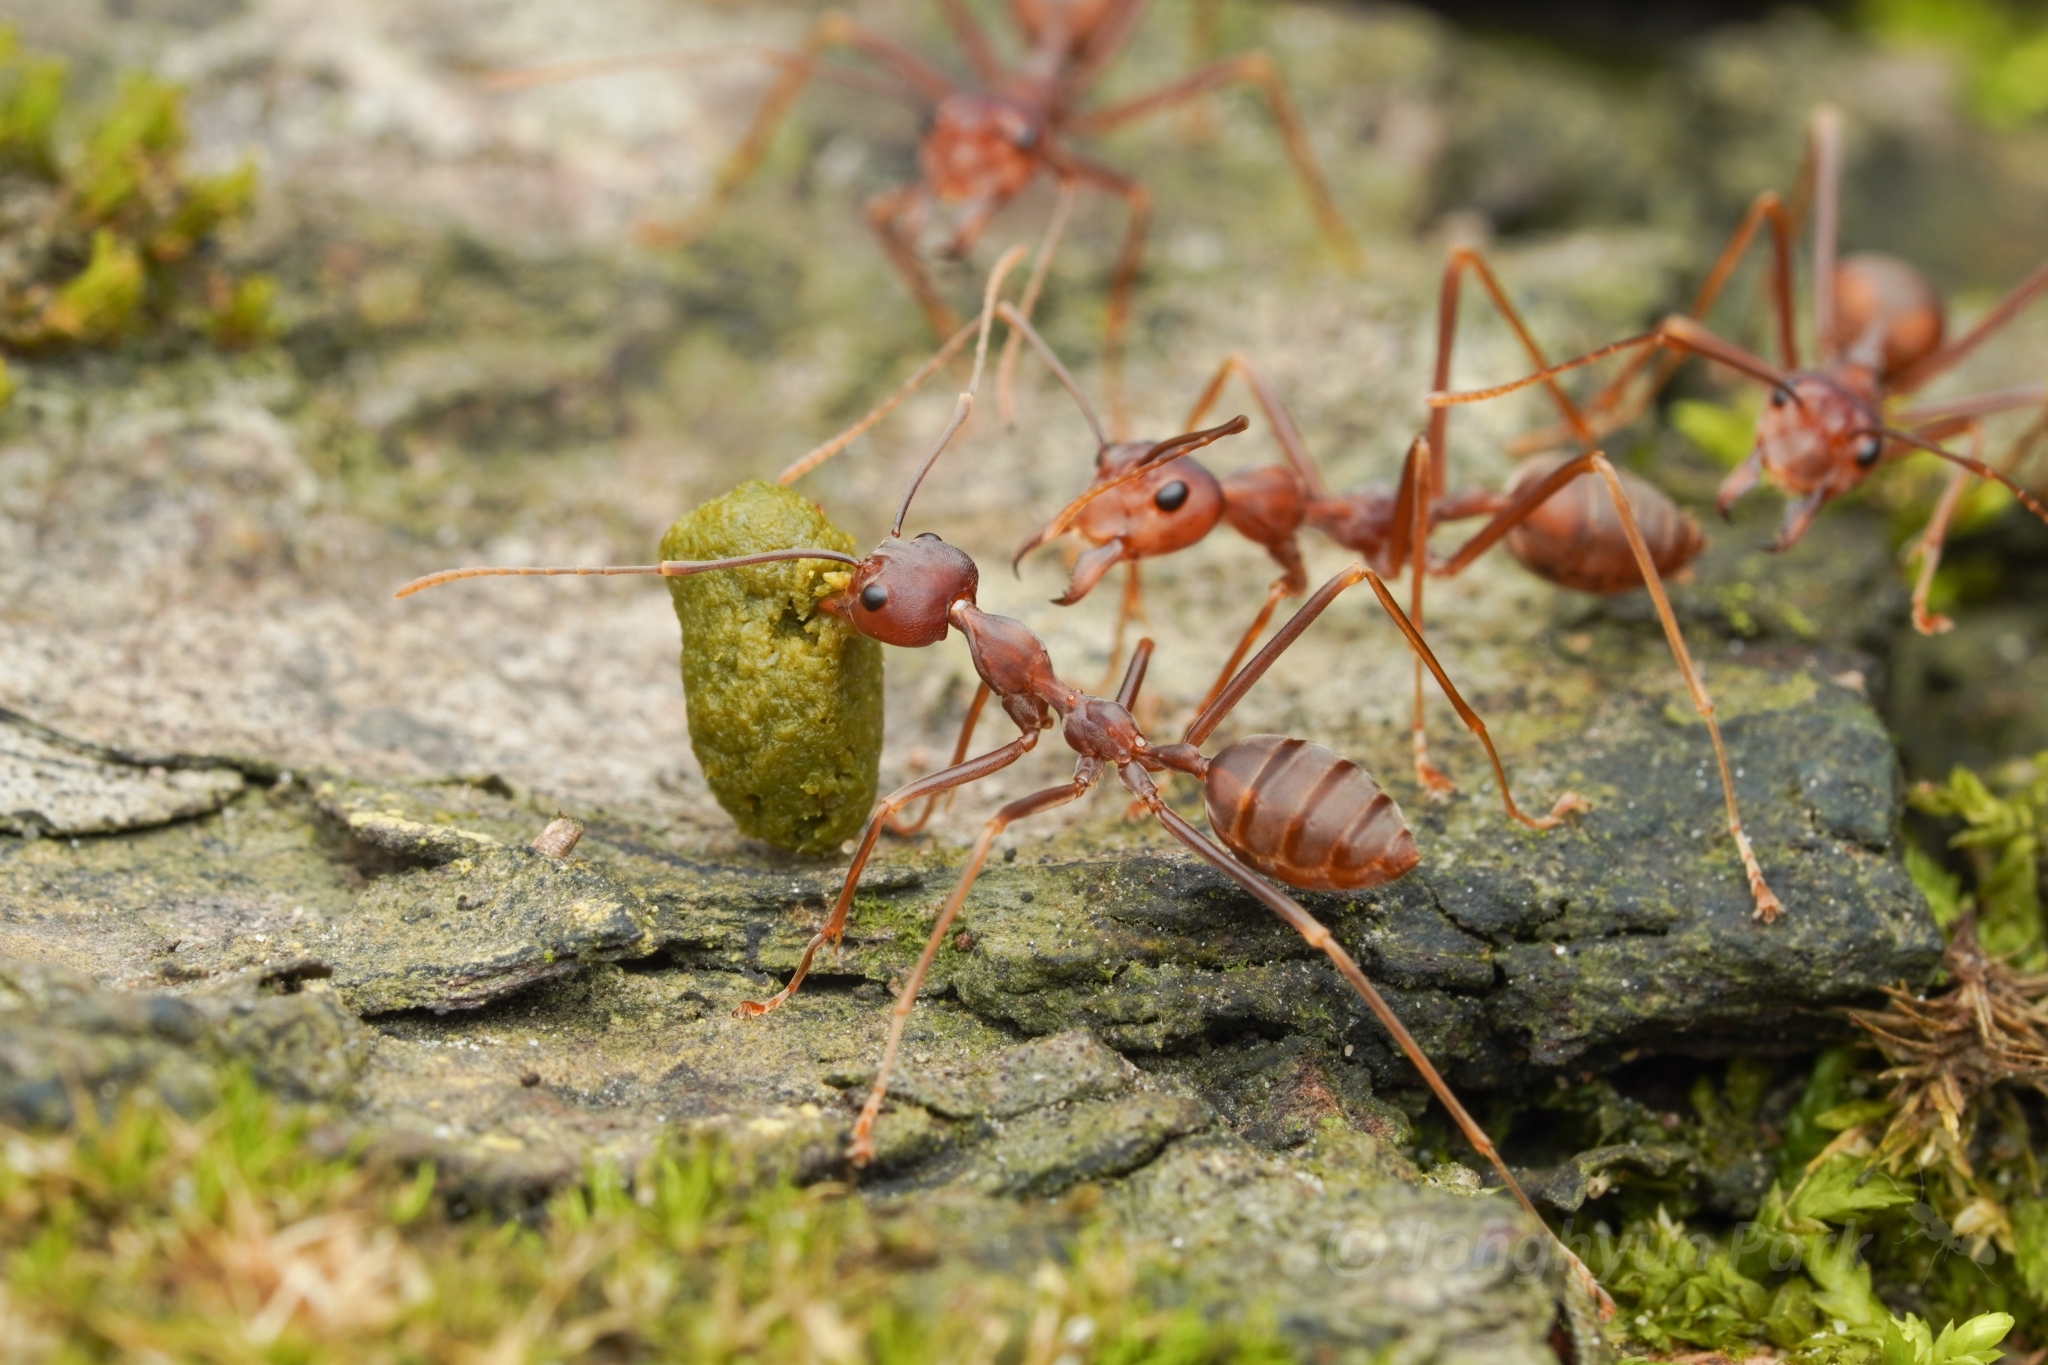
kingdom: Animalia
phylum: Arthropoda
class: Insecta
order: Hymenoptera
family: Formicidae
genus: Oecophylla
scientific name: Oecophylla smaragdina
